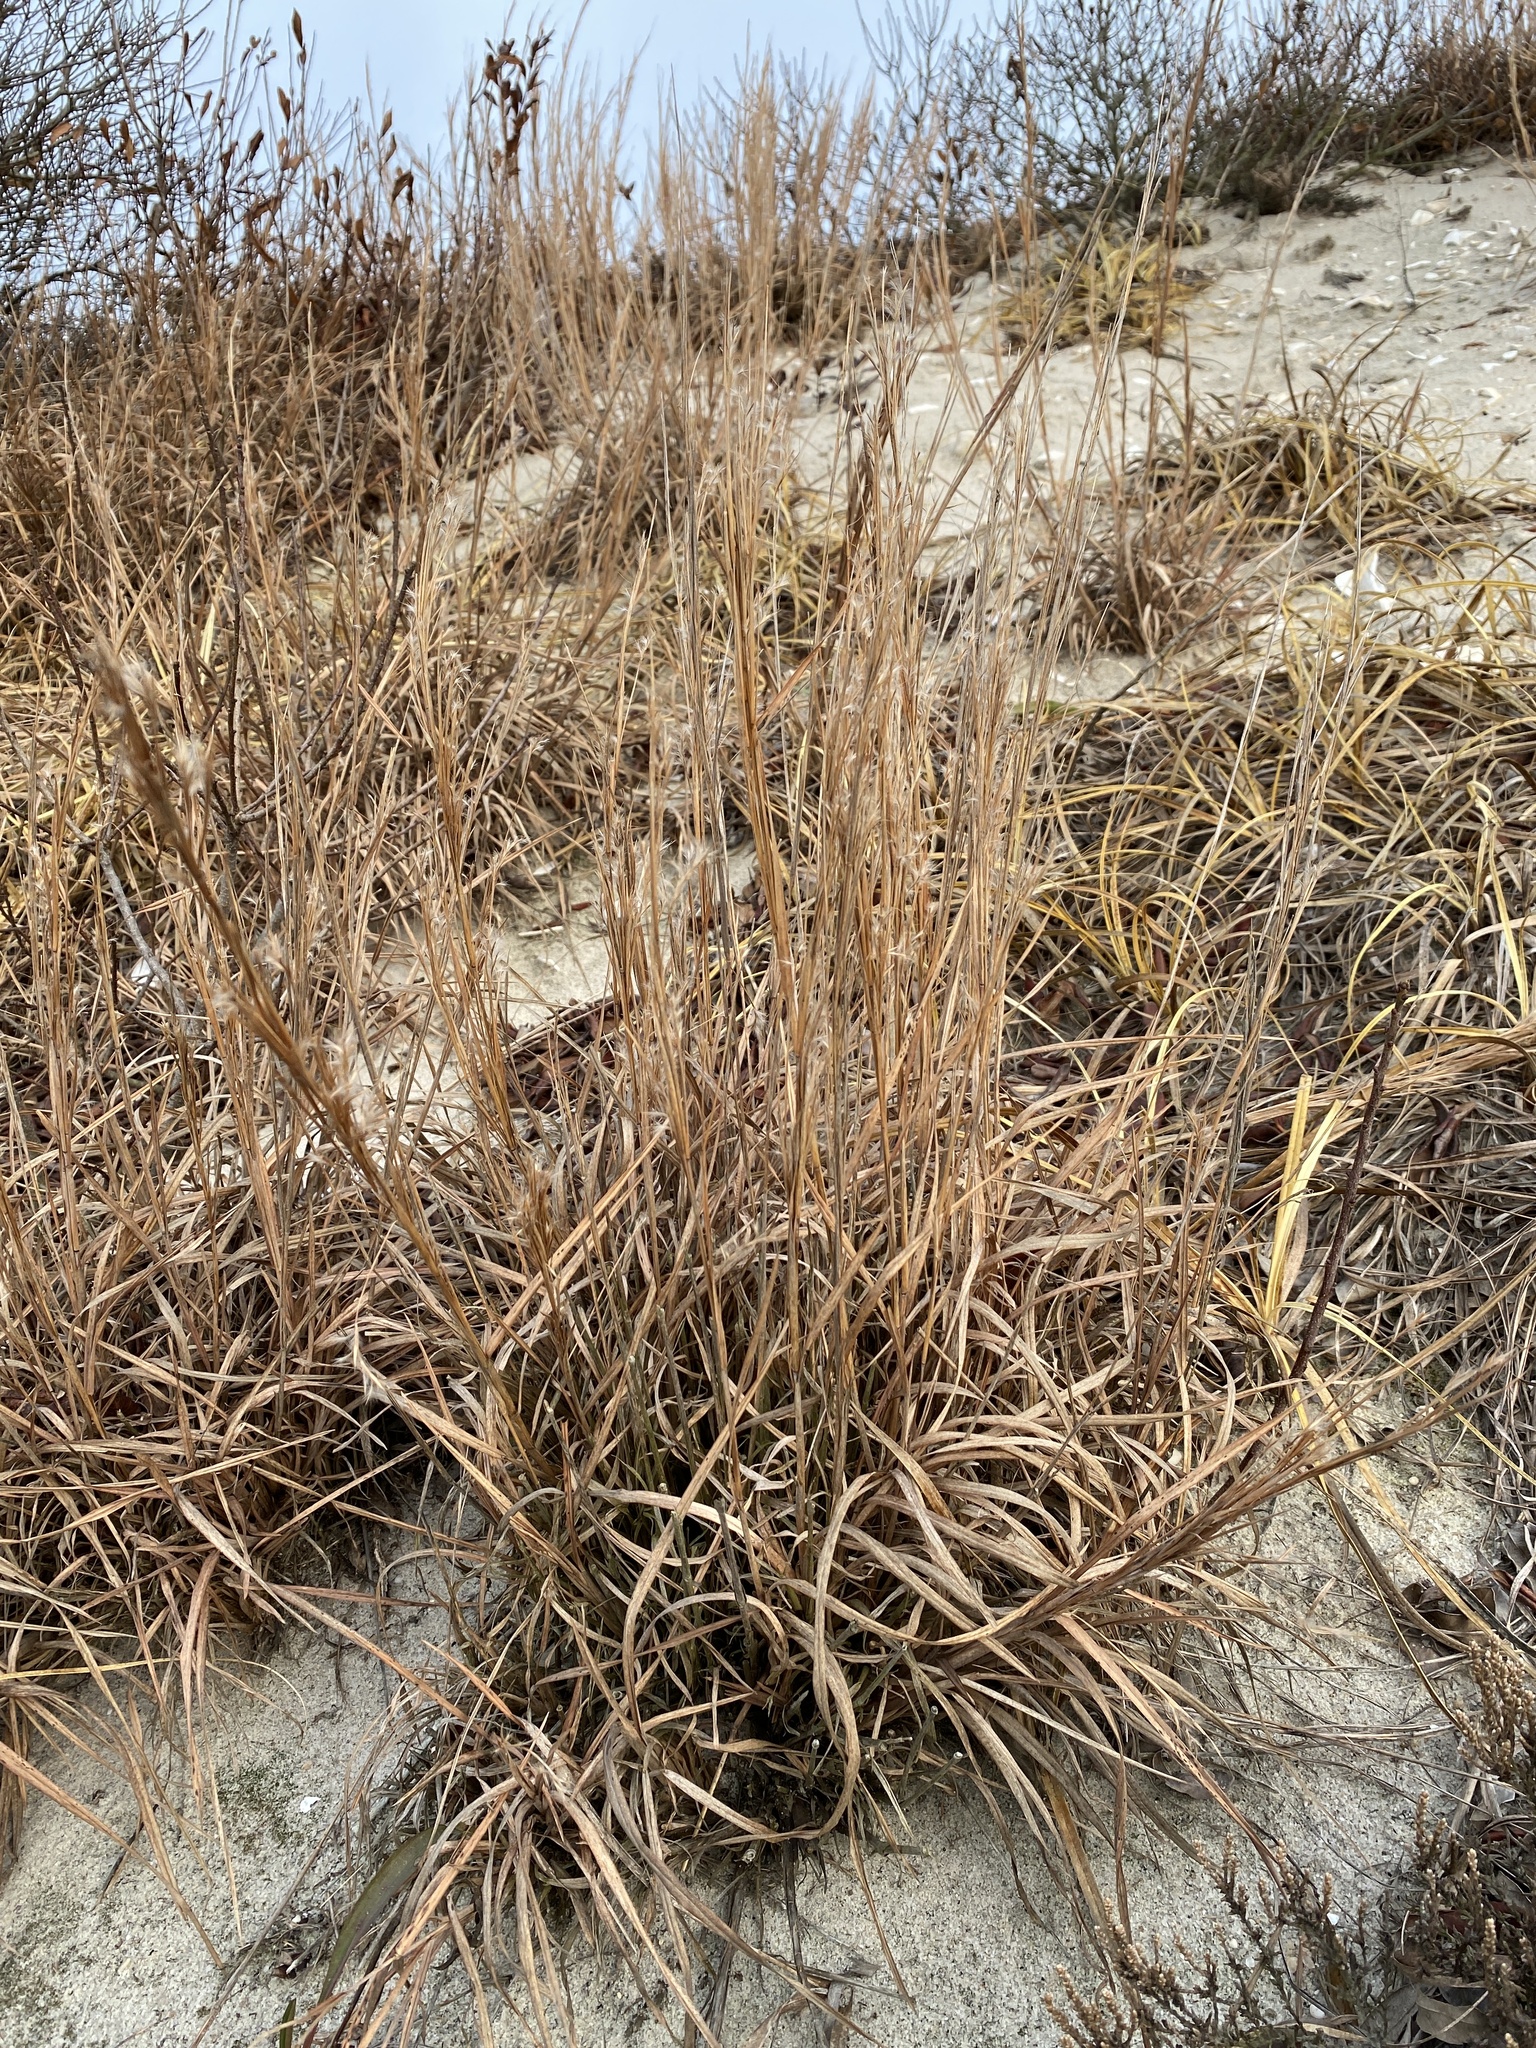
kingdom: Plantae
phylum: Tracheophyta
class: Liliopsida
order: Poales
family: Poaceae
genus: Schizachyrium
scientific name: Schizachyrium scoparium
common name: Little bluestem
